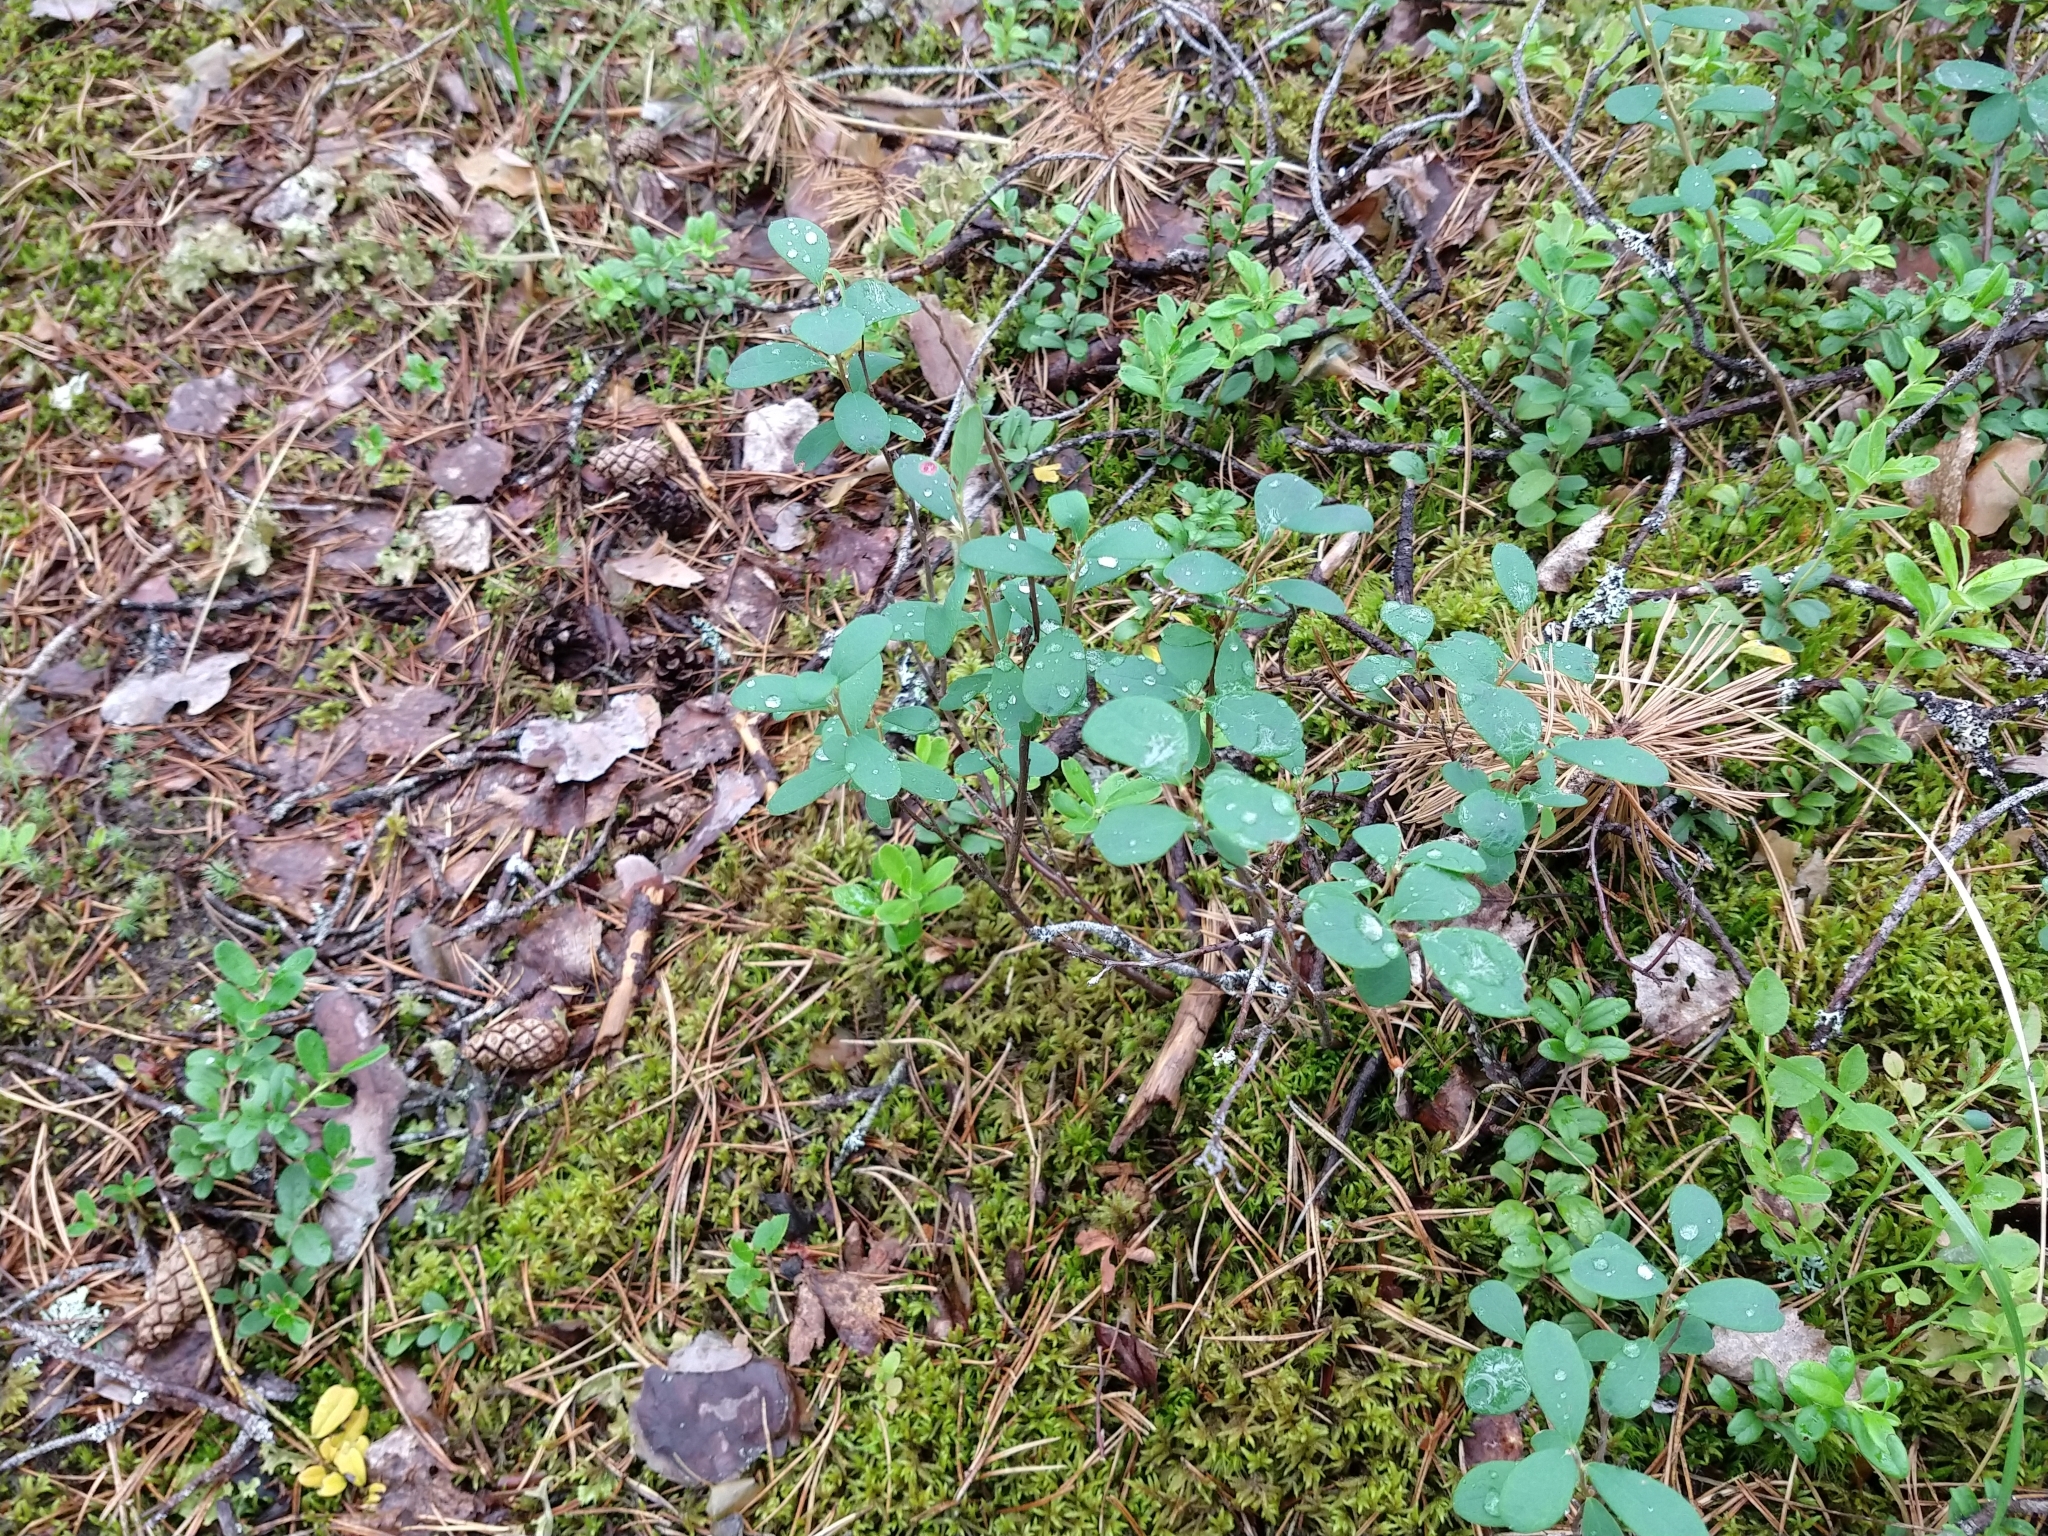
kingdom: Plantae
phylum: Tracheophyta
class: Magnoliopsida
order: Ericales
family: Ericaceae
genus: Vaccinium
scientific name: Vaccinium uliginosum
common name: Bog bilberry
